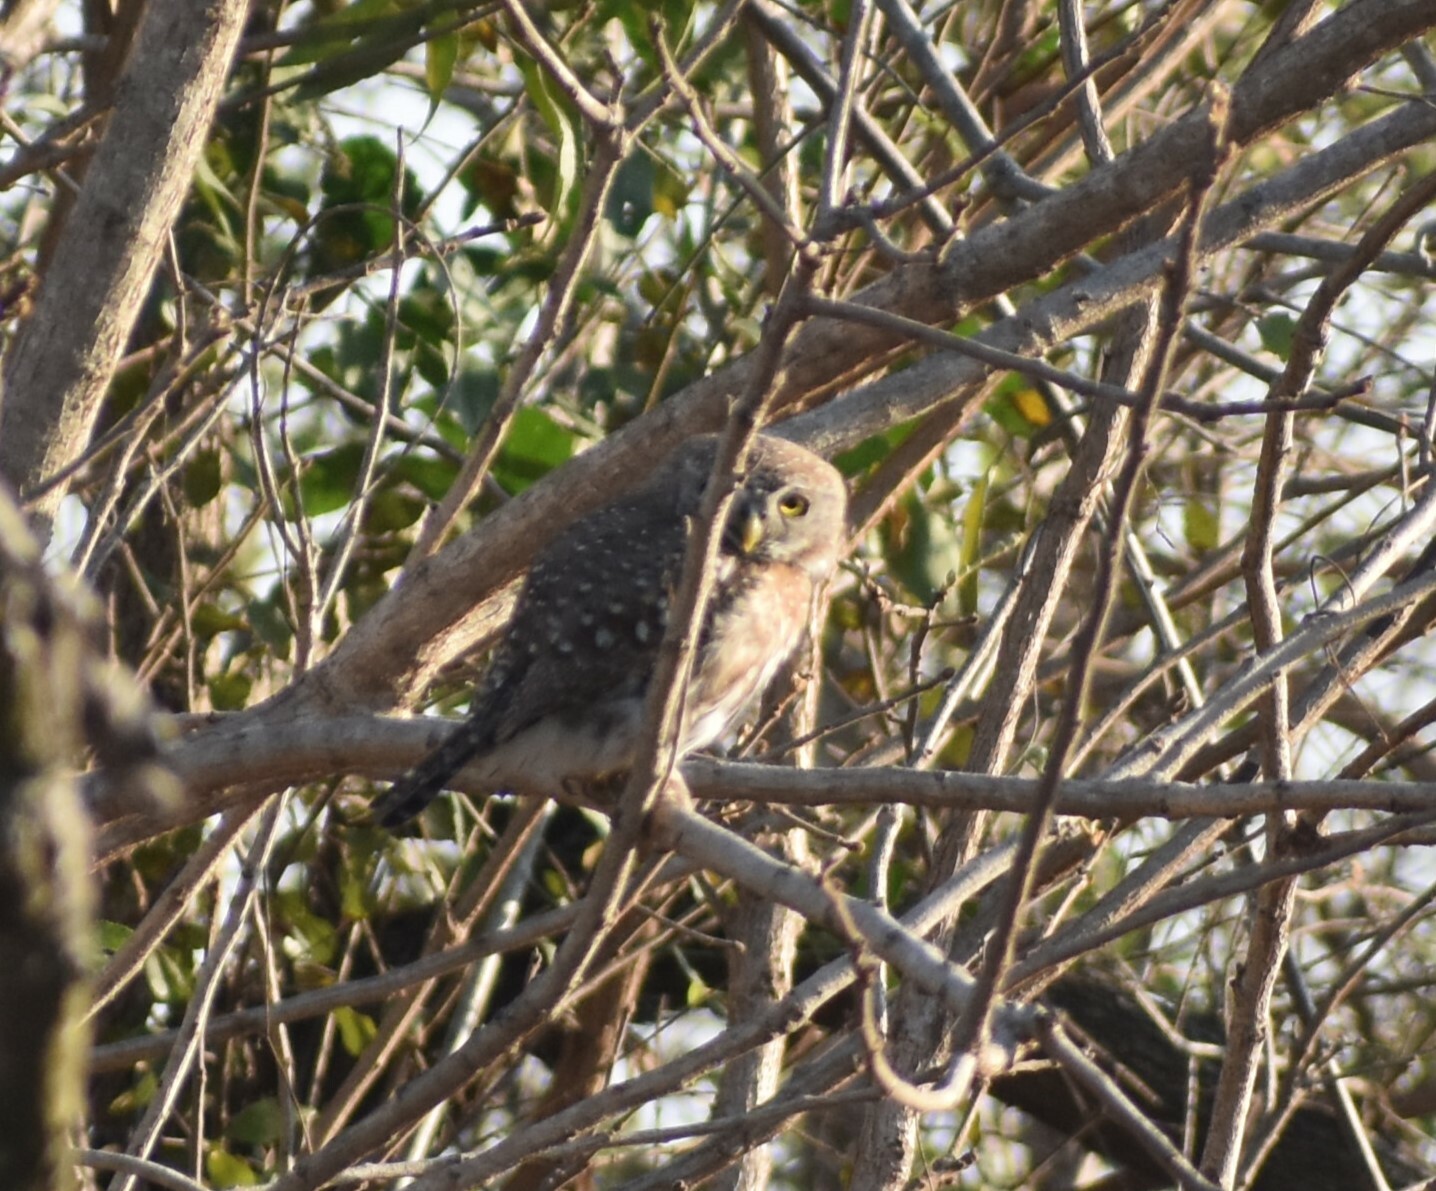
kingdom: Animalia
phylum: Chordata
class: Aves
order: Strigiformes
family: Strigidae
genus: Glaucidium
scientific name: Glaucidium perlatum
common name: Pearl-spotted owlet
